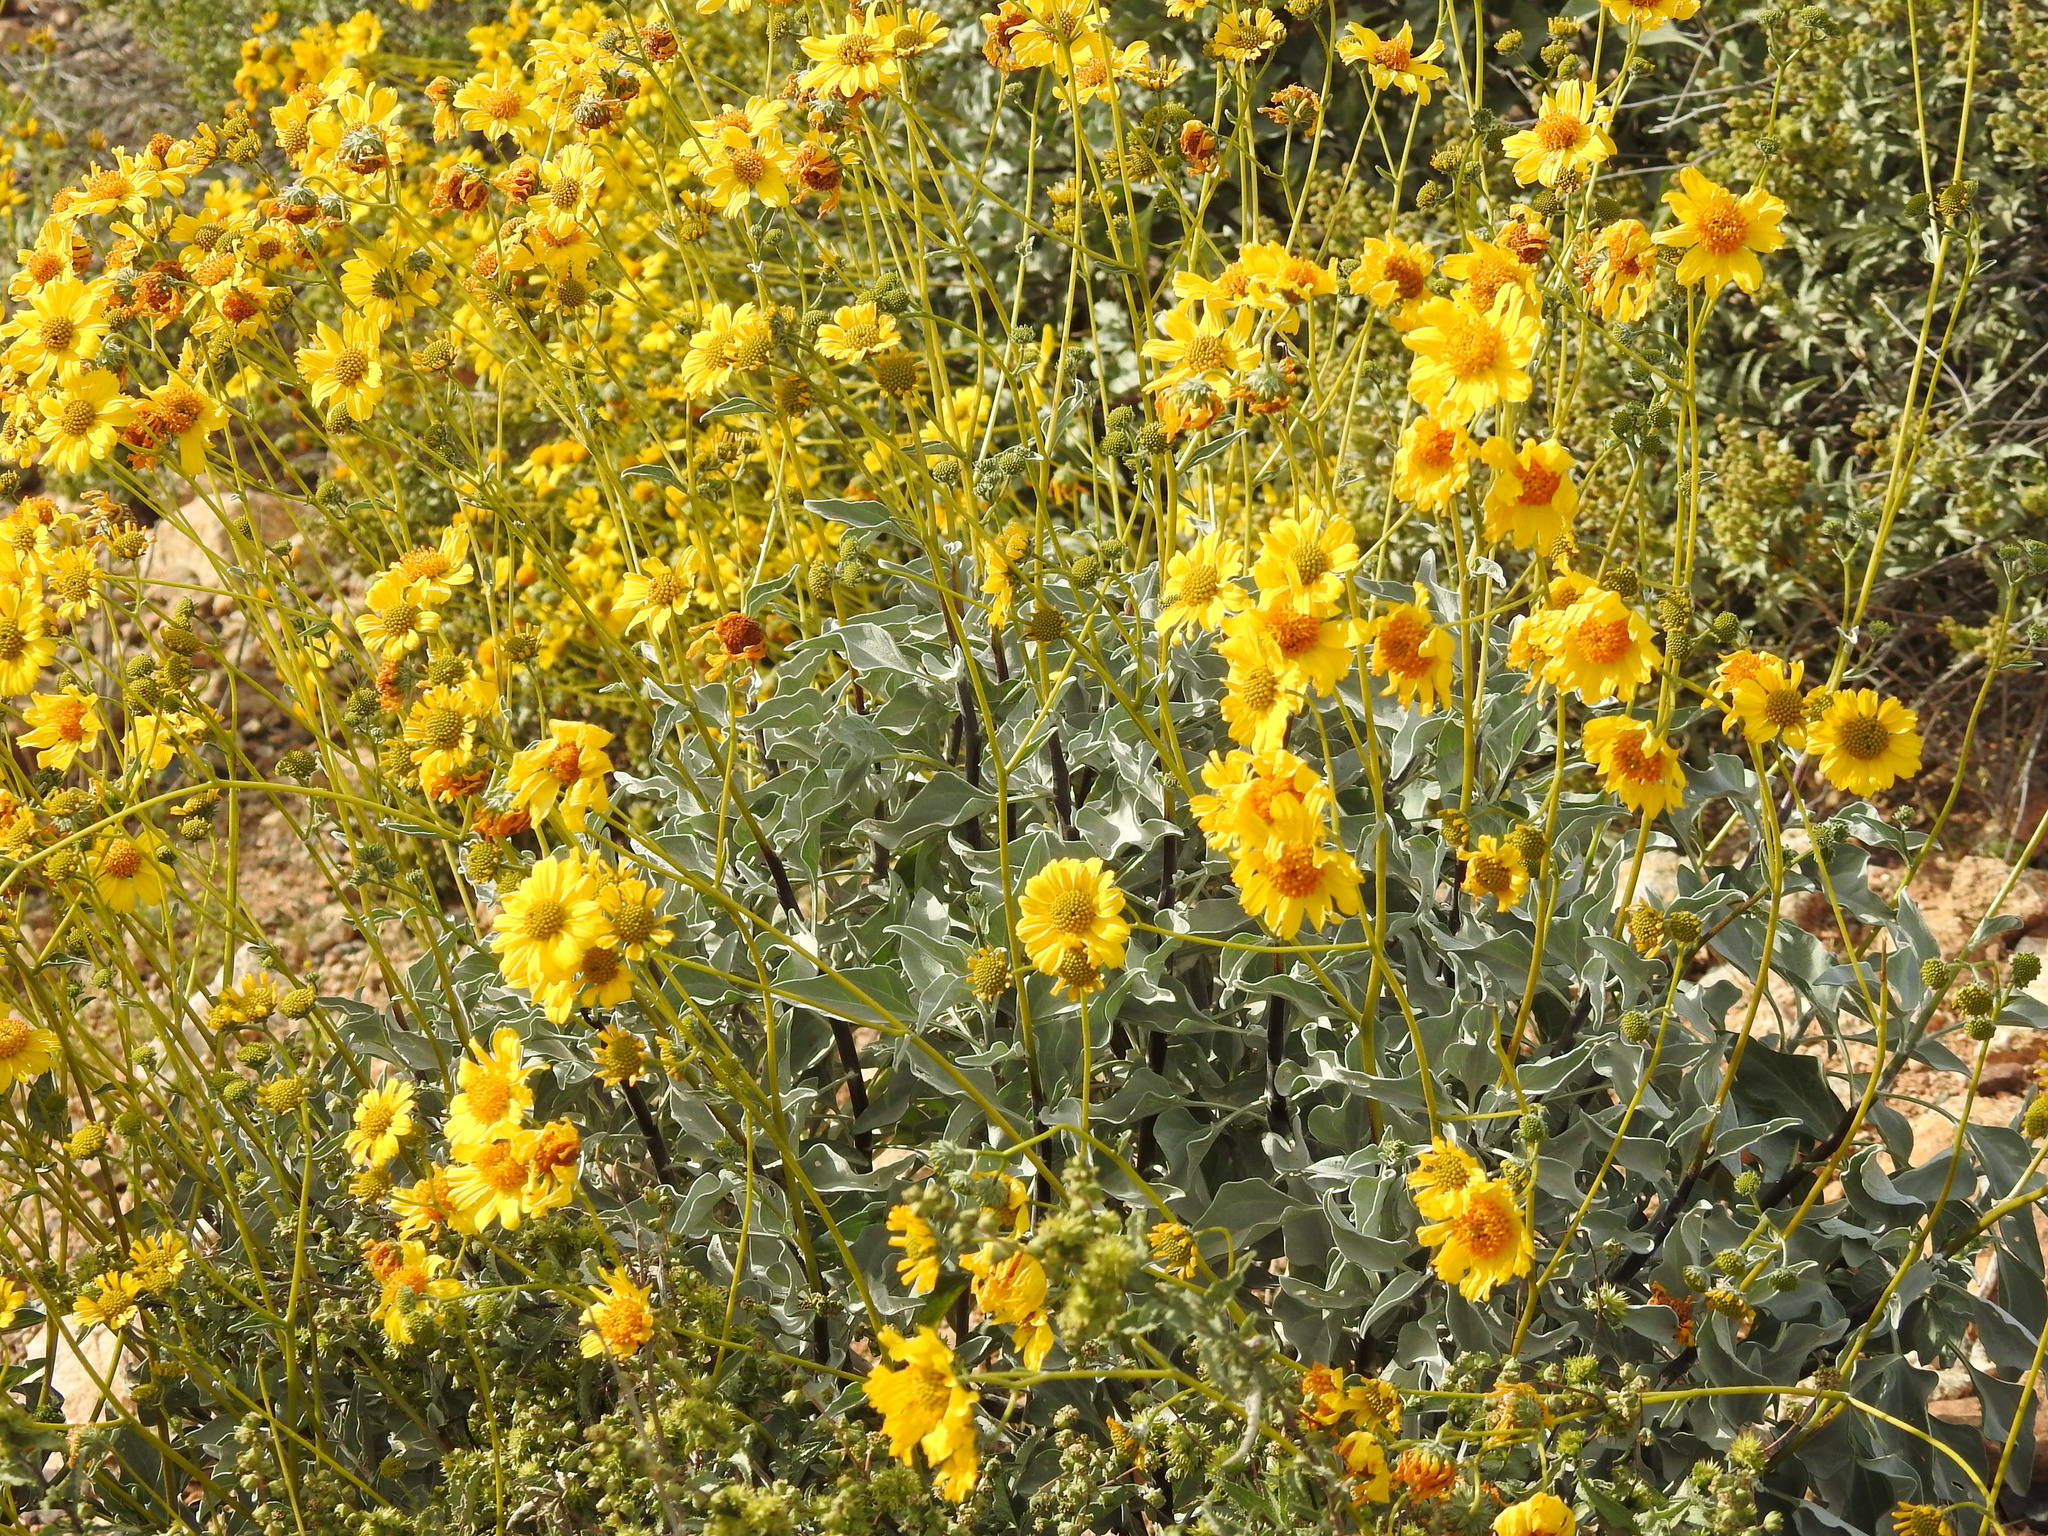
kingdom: Plantae
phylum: Tracheophyta
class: Magnoliopsida
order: Asterales
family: Asteraceae
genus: Encelia
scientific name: Encelia farinosa
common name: Brittlebush
